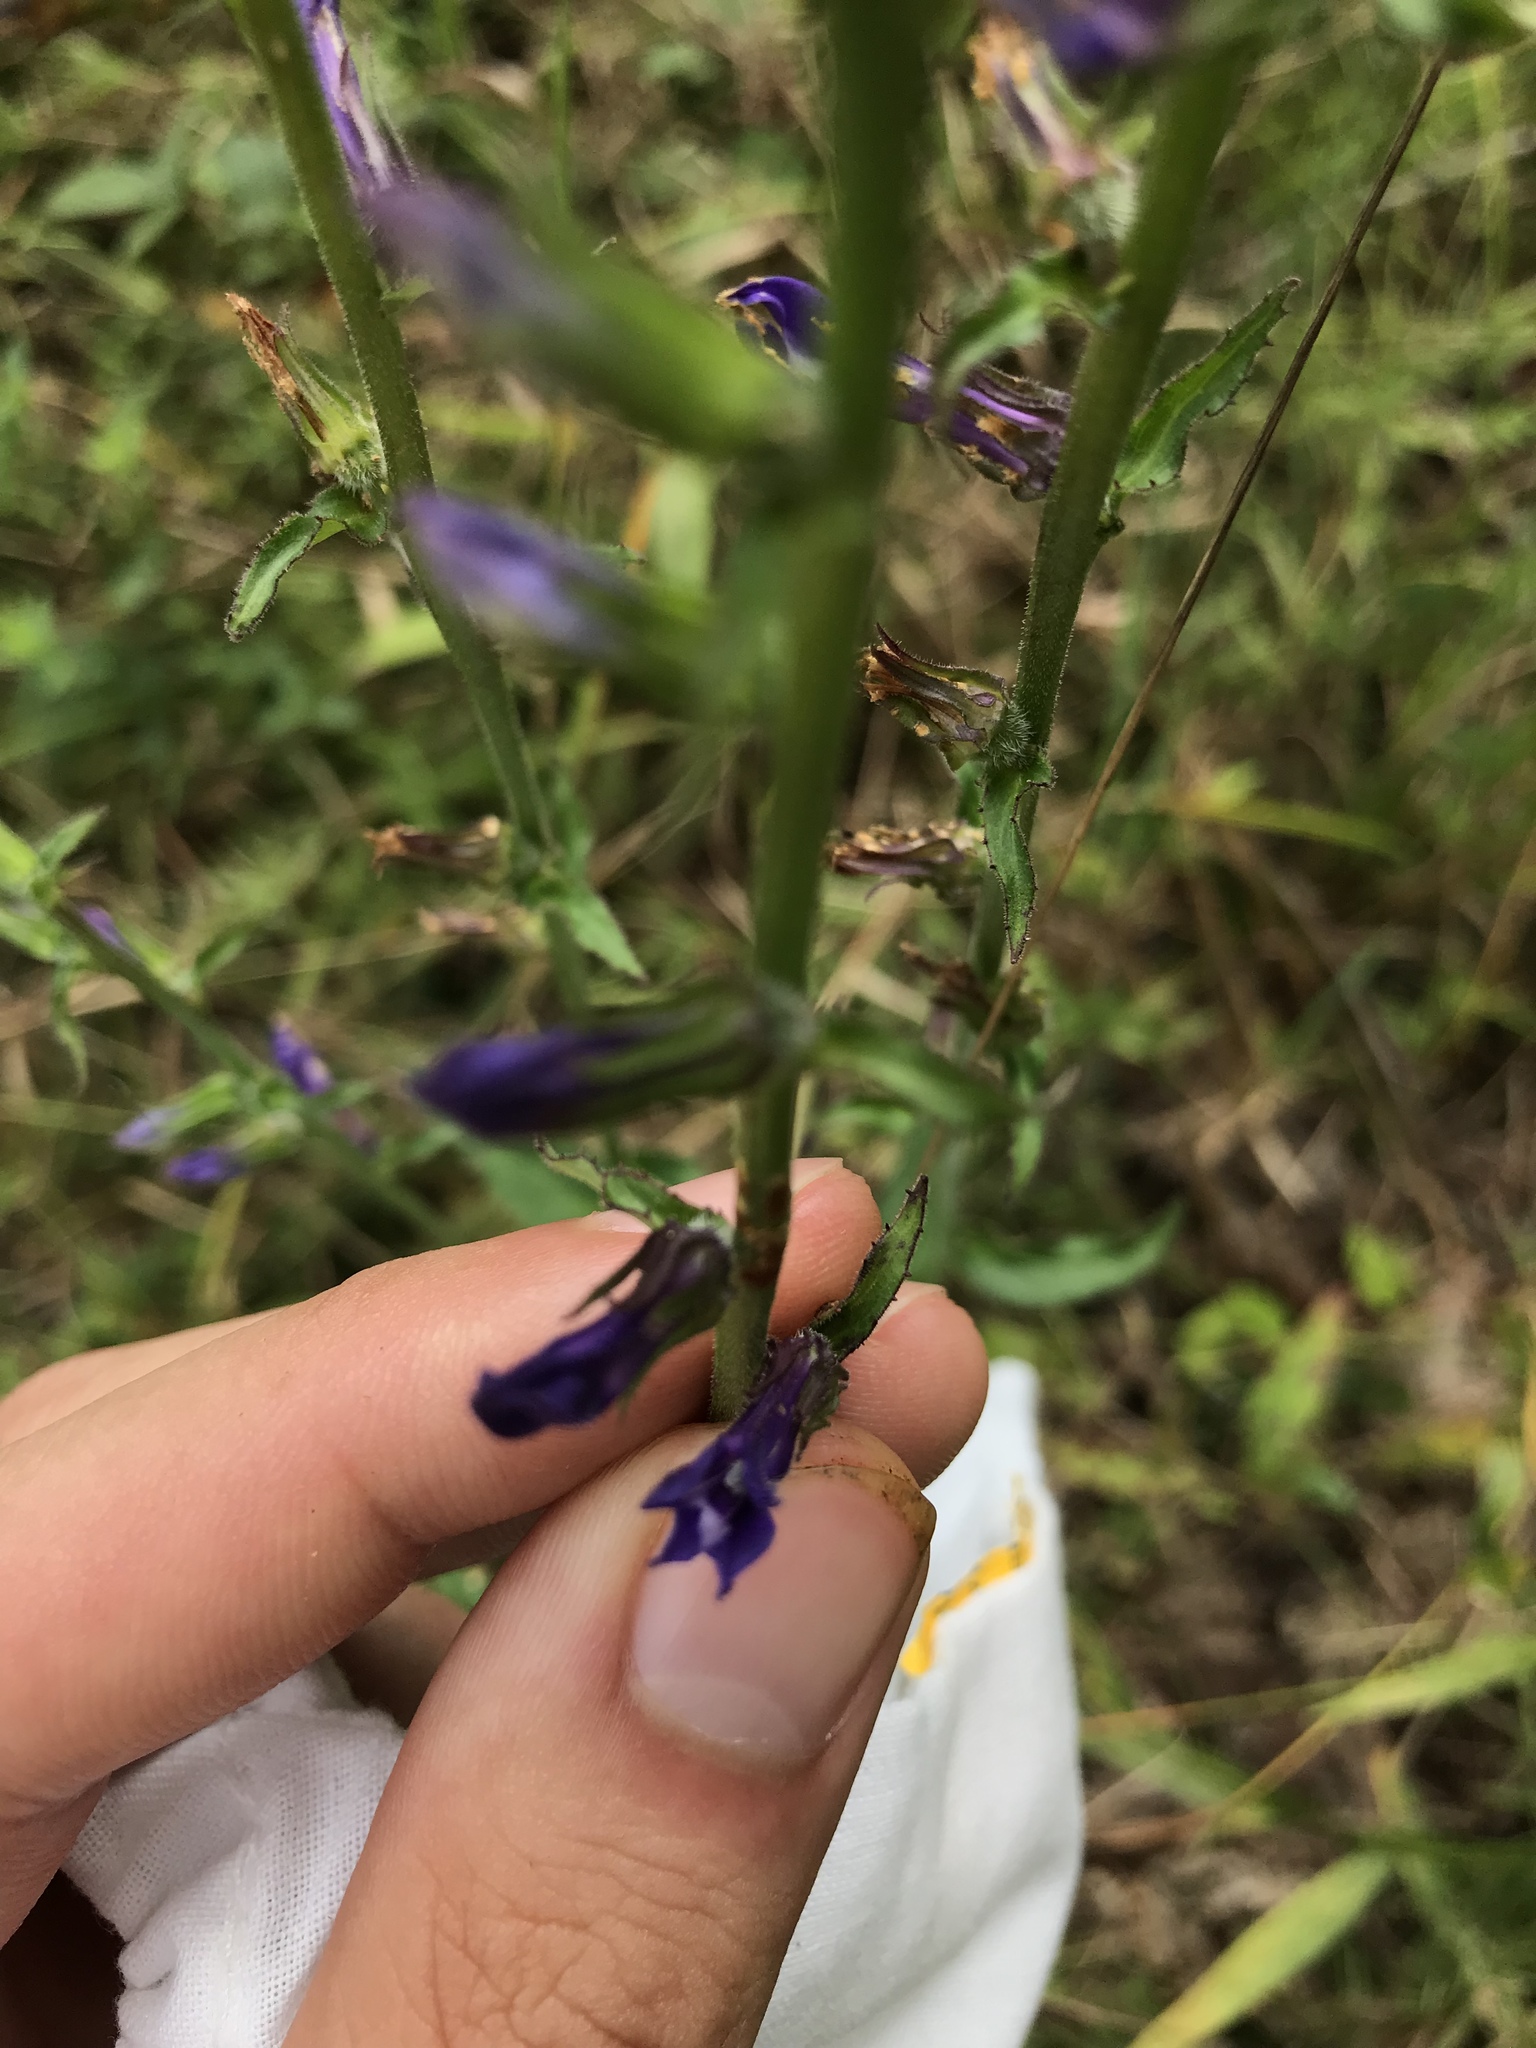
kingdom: Plantae
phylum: Tracheophyta
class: Magnoliopsida
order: Asterales
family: Campanulaceae
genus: Lobelia
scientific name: Lobelia puberula
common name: Purple dewdrop
